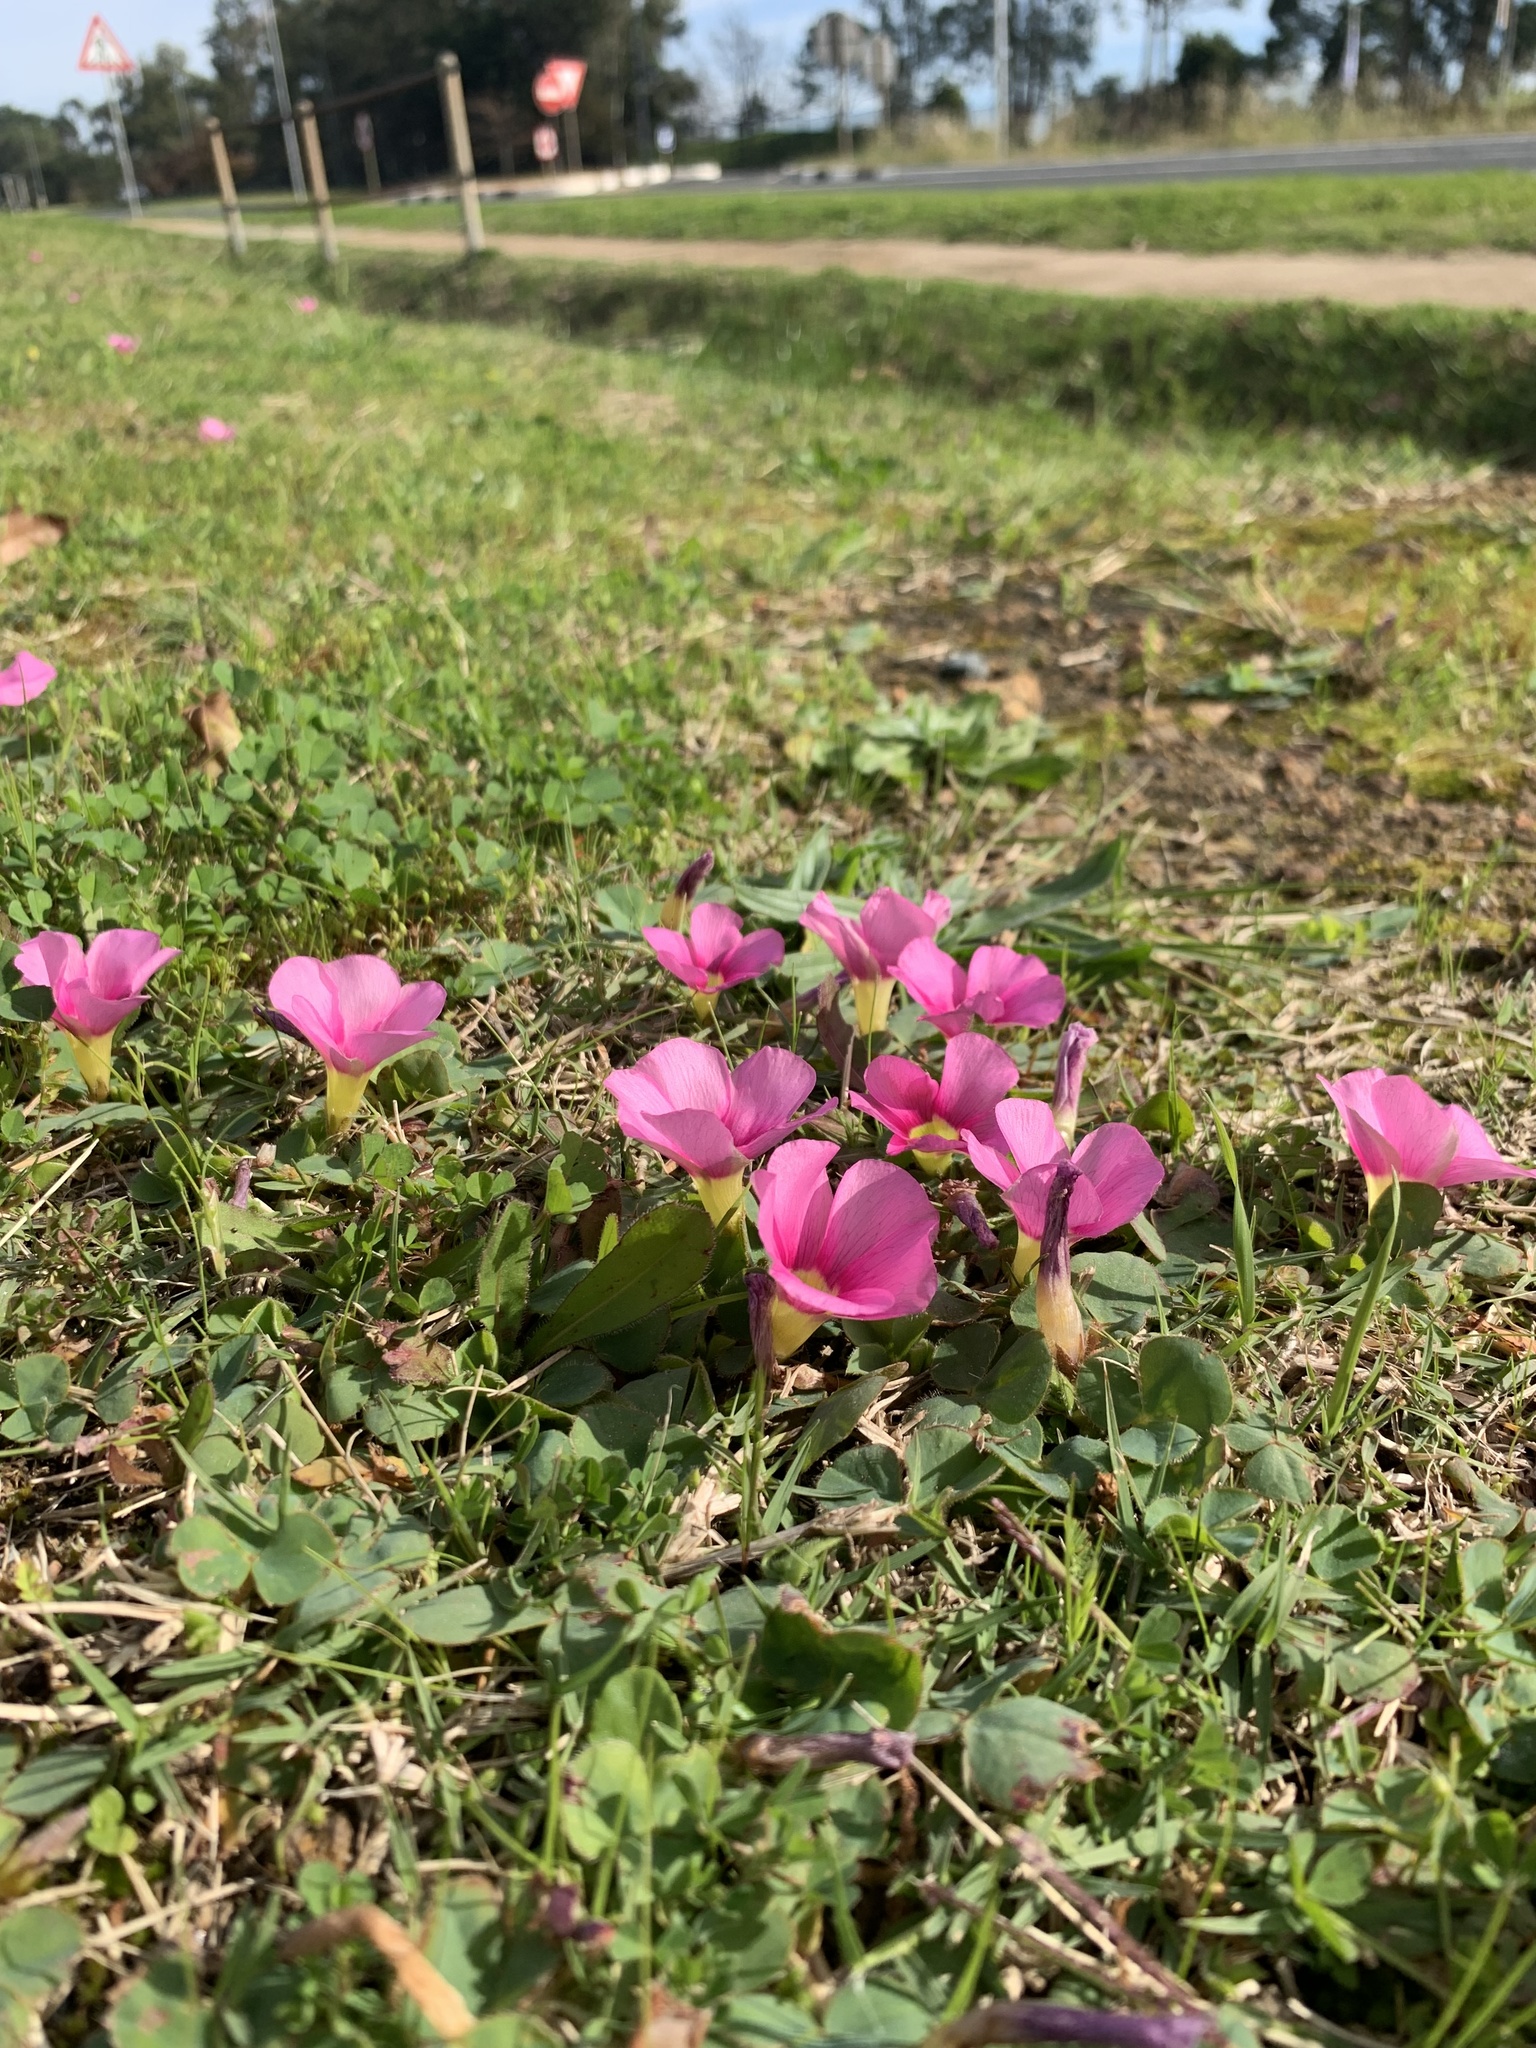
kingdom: Plantae
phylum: Tracheophyta
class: Magnoliopsida
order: Oxalidales
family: Oxalidaceae
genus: Oxalis
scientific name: Oxalis purpurea
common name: Purple woodsorrel
